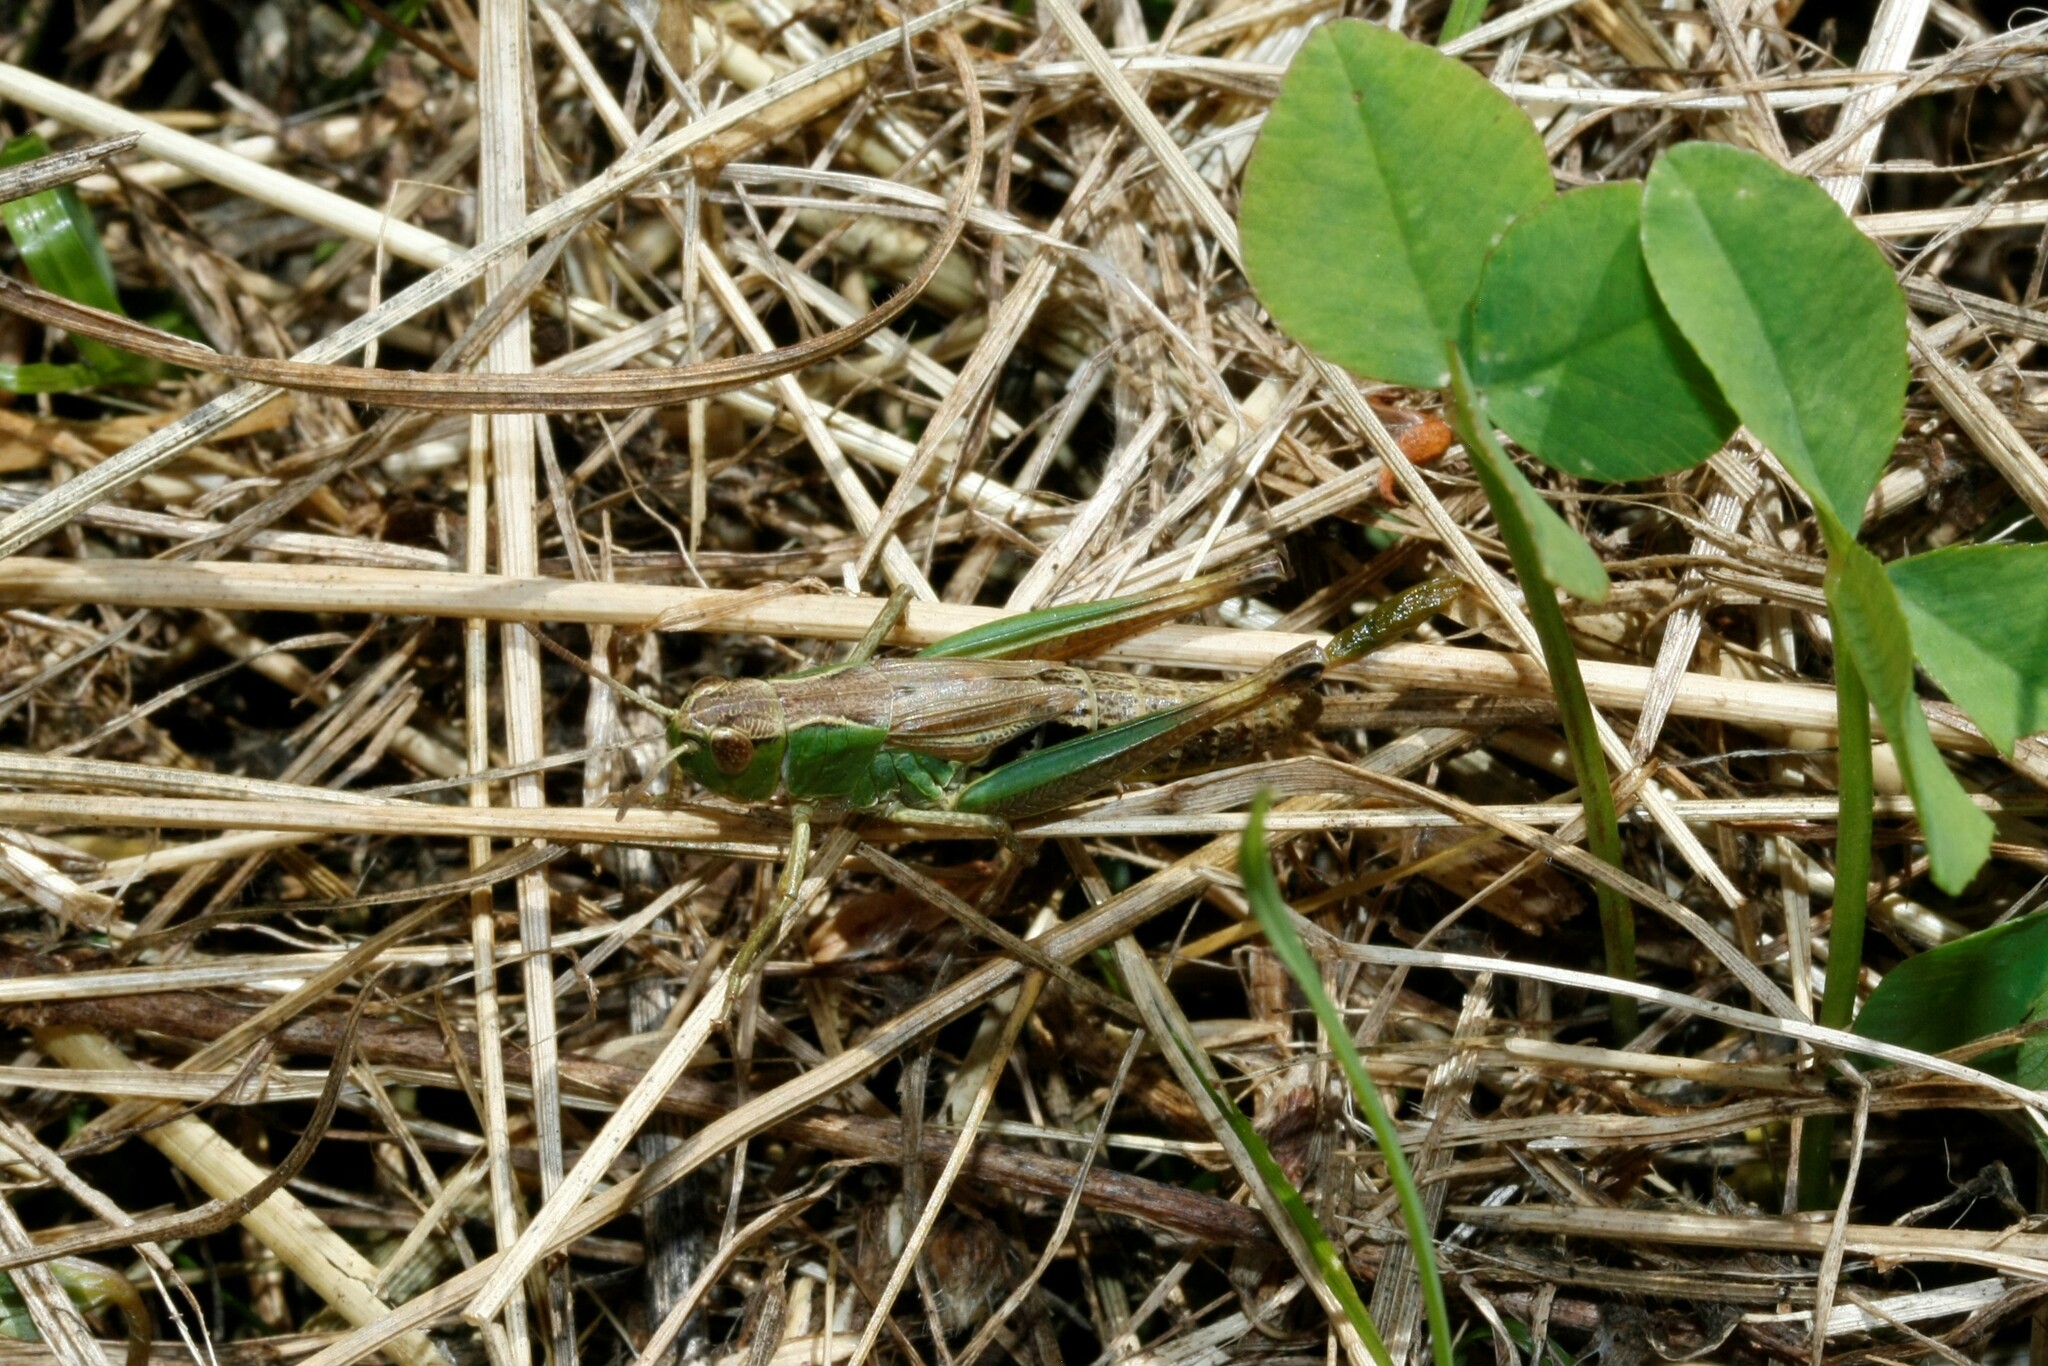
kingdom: Animalia
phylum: Arthropoda
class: Insecta
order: Orthoptera
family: Acrididae
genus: Pseudochorthippus
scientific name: Pseudochorthippus parallelus
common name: Meadow grasshopper
